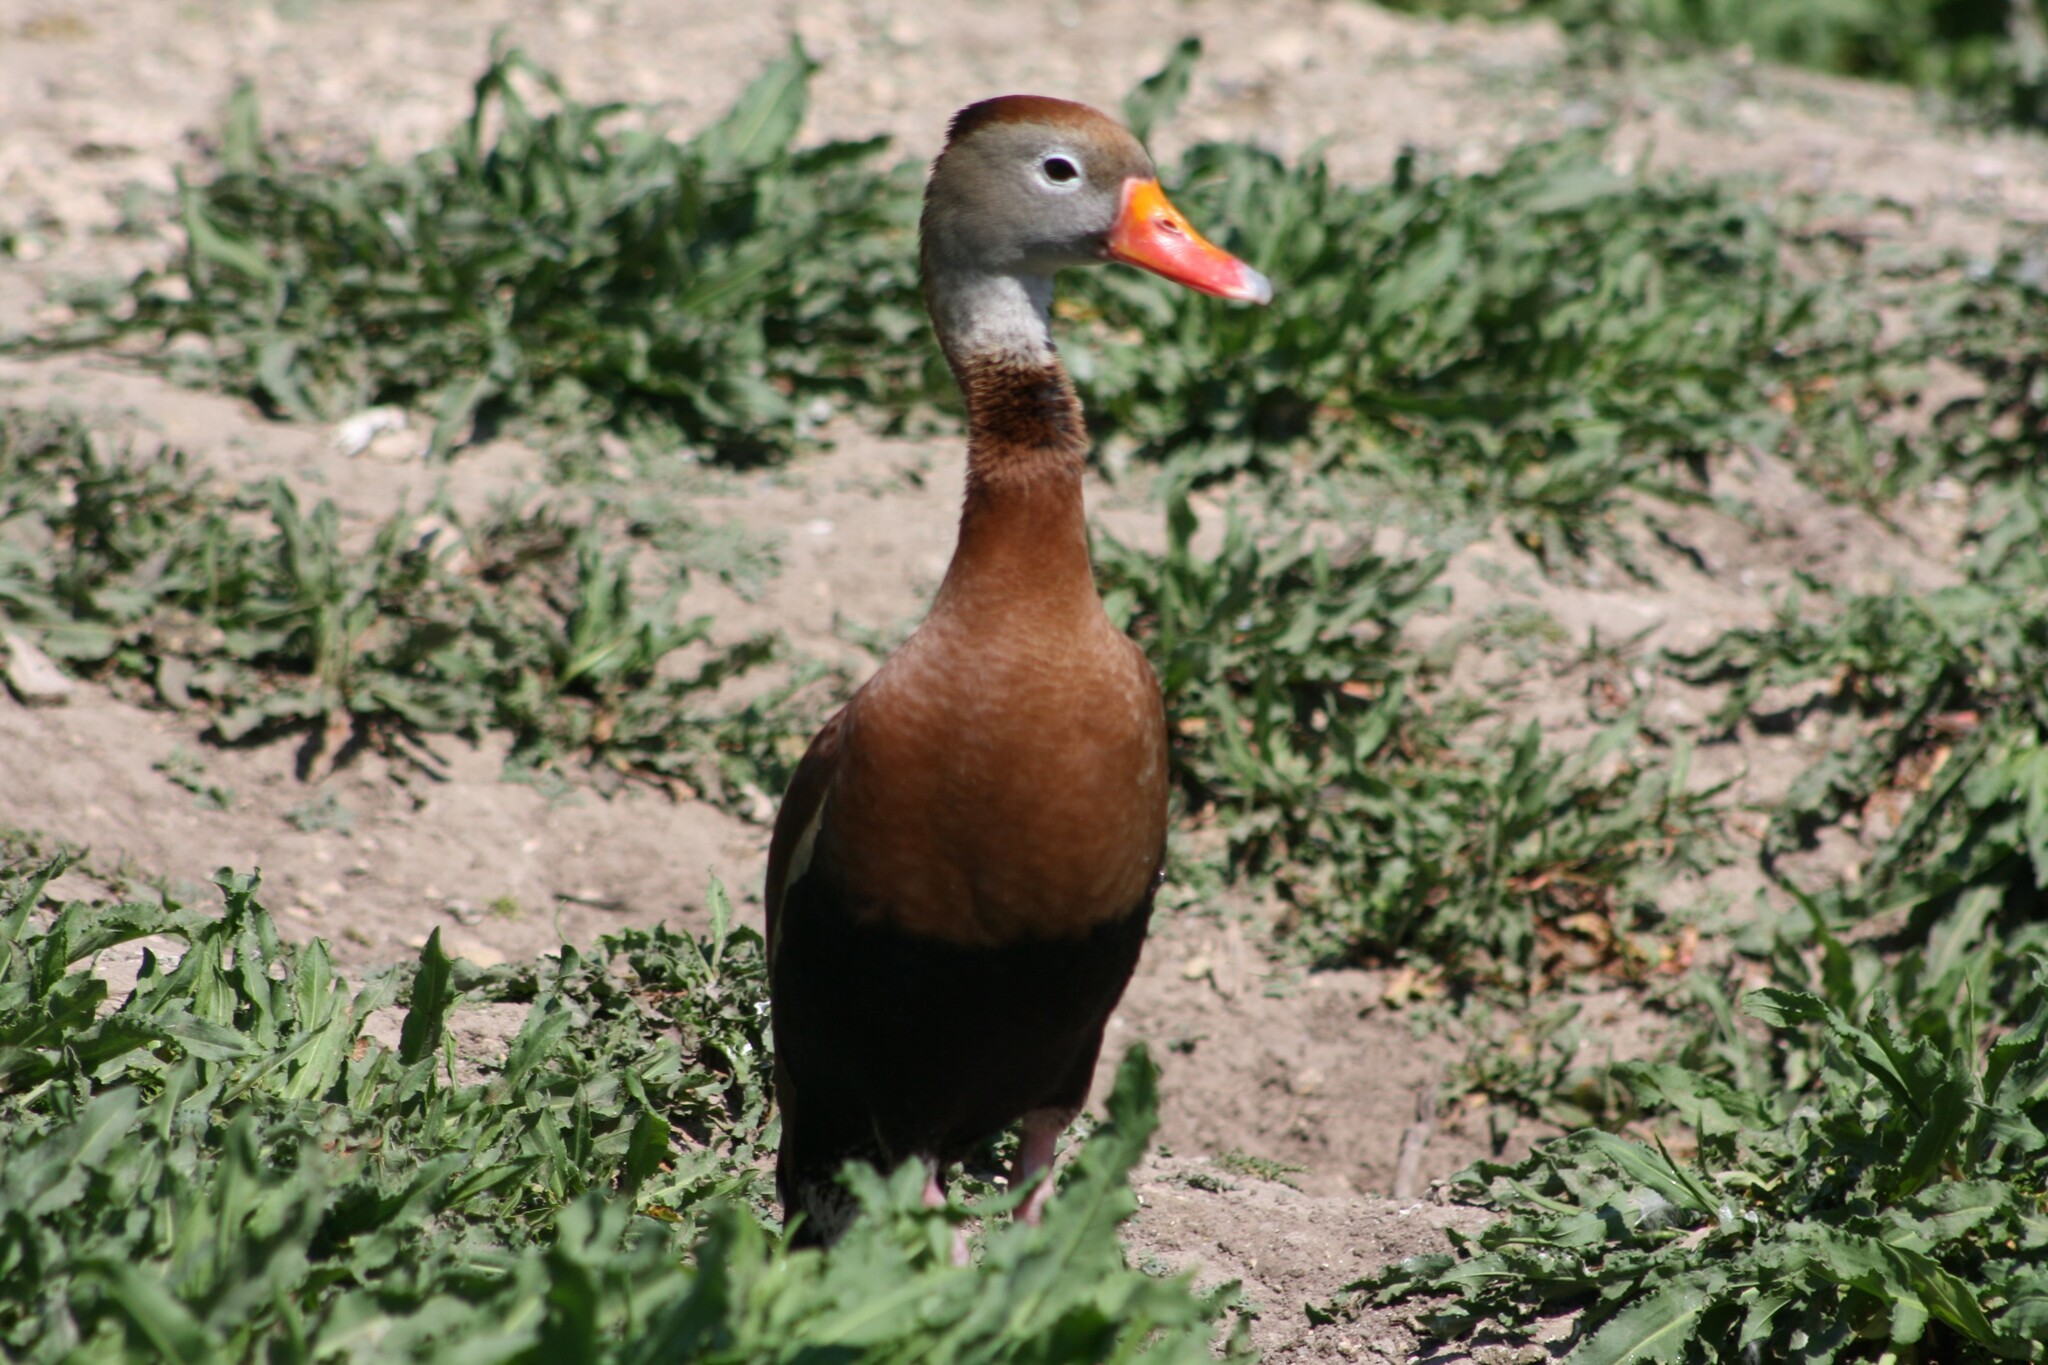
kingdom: Animalia
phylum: Chordata
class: Aves
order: Anseriformes
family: Anatidae
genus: Dendrocygna
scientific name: Dendrocygna autumnalis
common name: Black-bellied whistling duck
